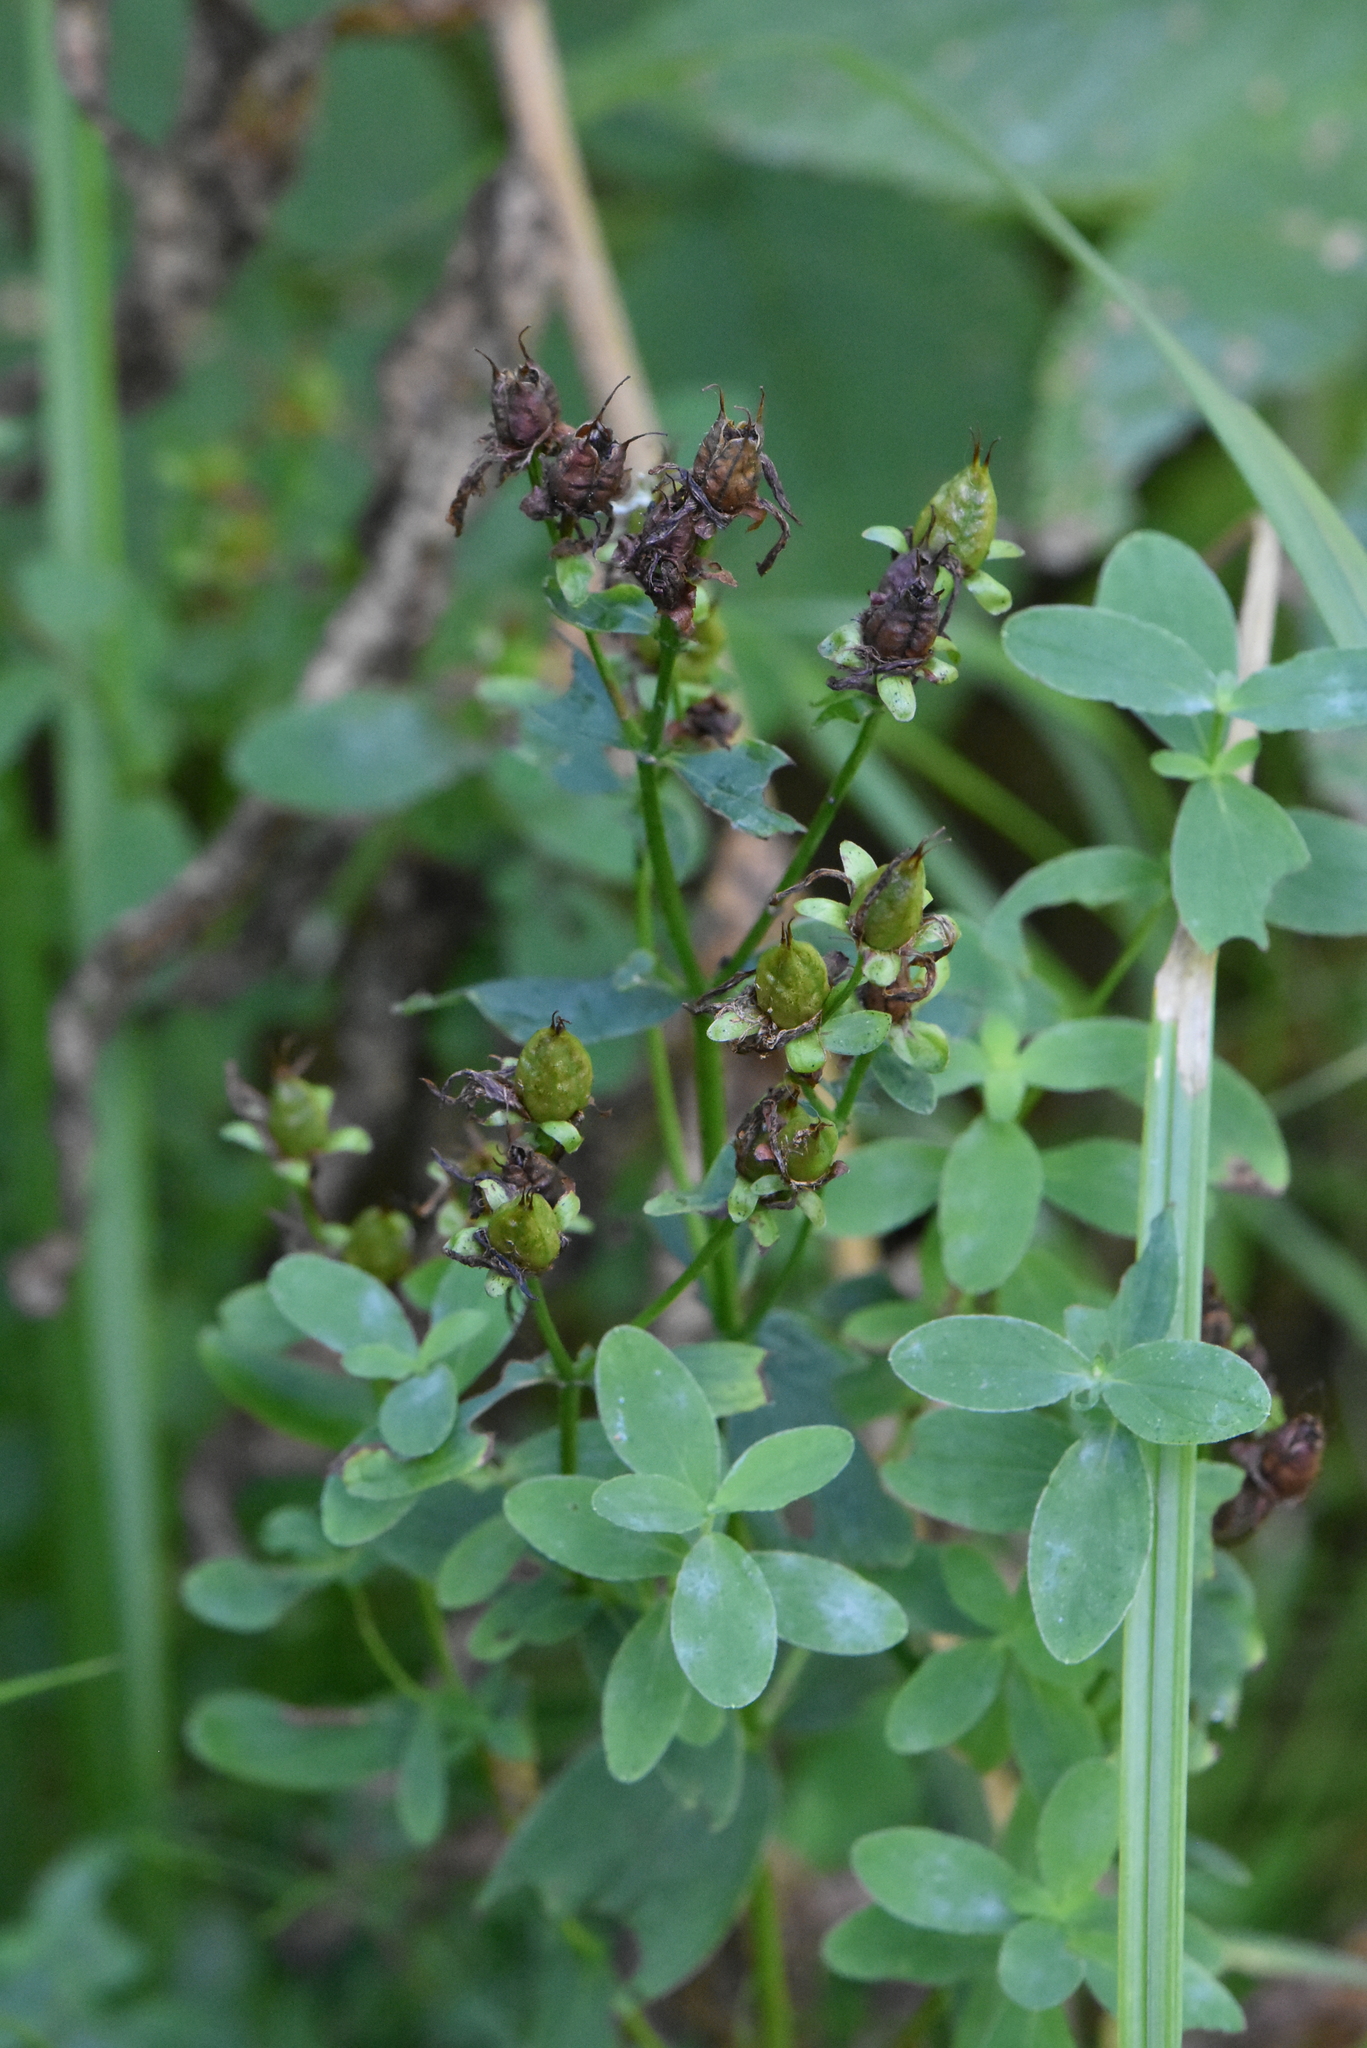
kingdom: Plantae
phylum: Tracheophyta
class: Magnoliopsida
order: Malpighiales
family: Hypericaceae
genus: Hypericum
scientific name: Hypericum maculatum
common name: Imperforate st. john's-wort
